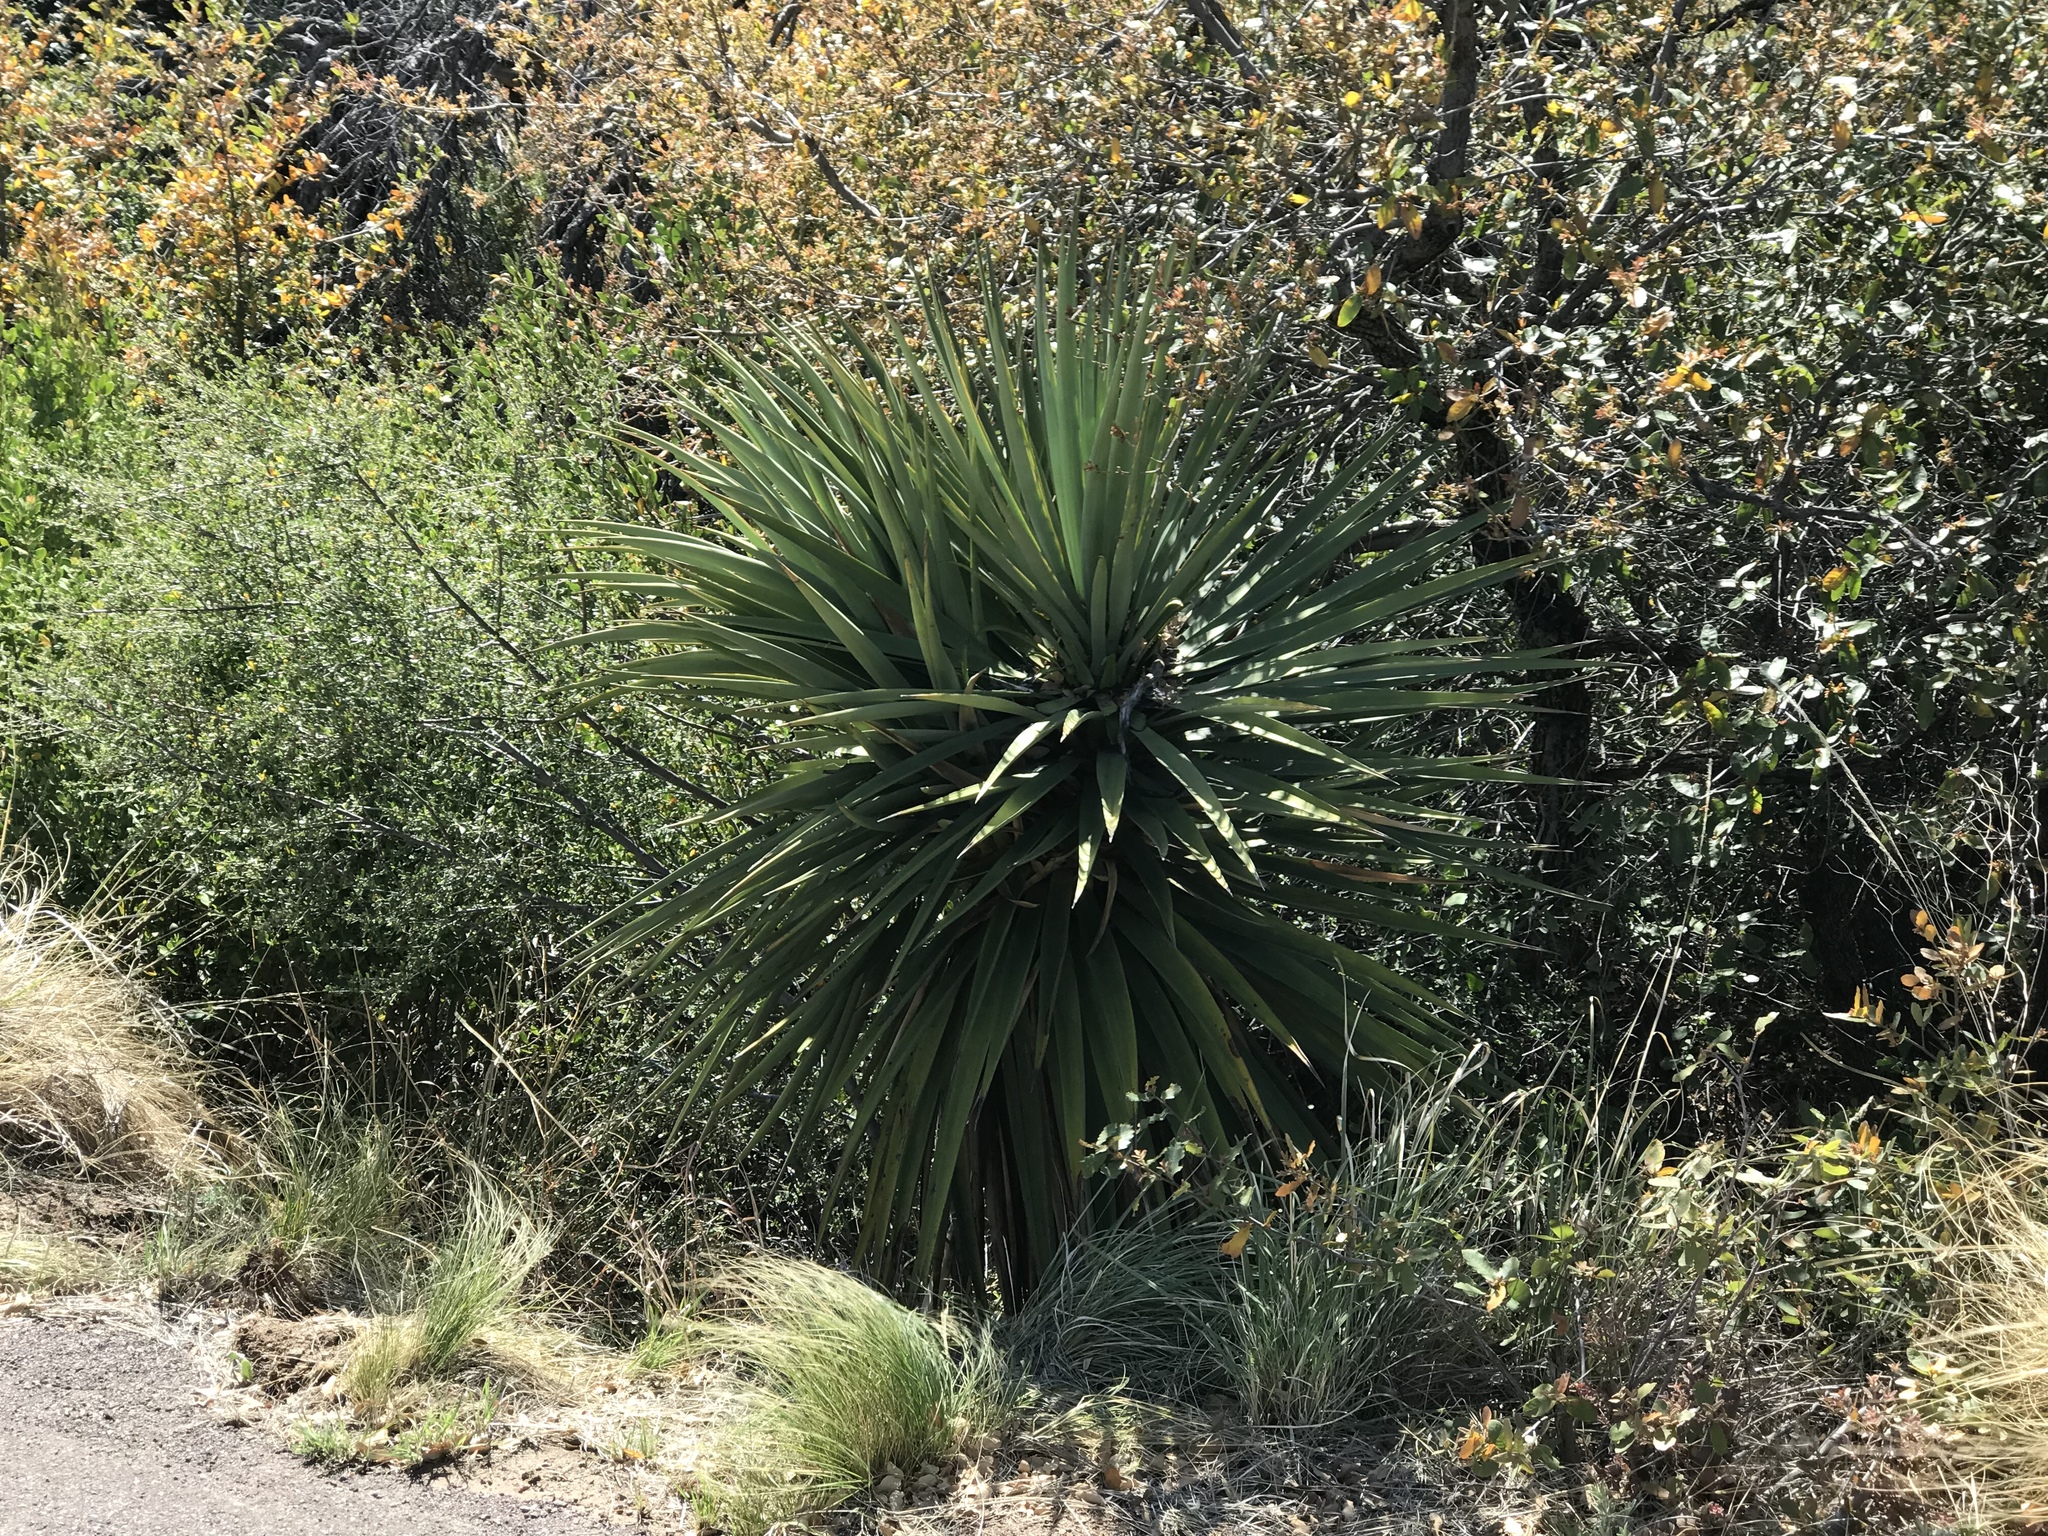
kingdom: Plantae
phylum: Tracheophyta
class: Liliopsida
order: Asparagales
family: Asparagaceae
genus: Yucca
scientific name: Yucca madrensis
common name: Hoary yucca
